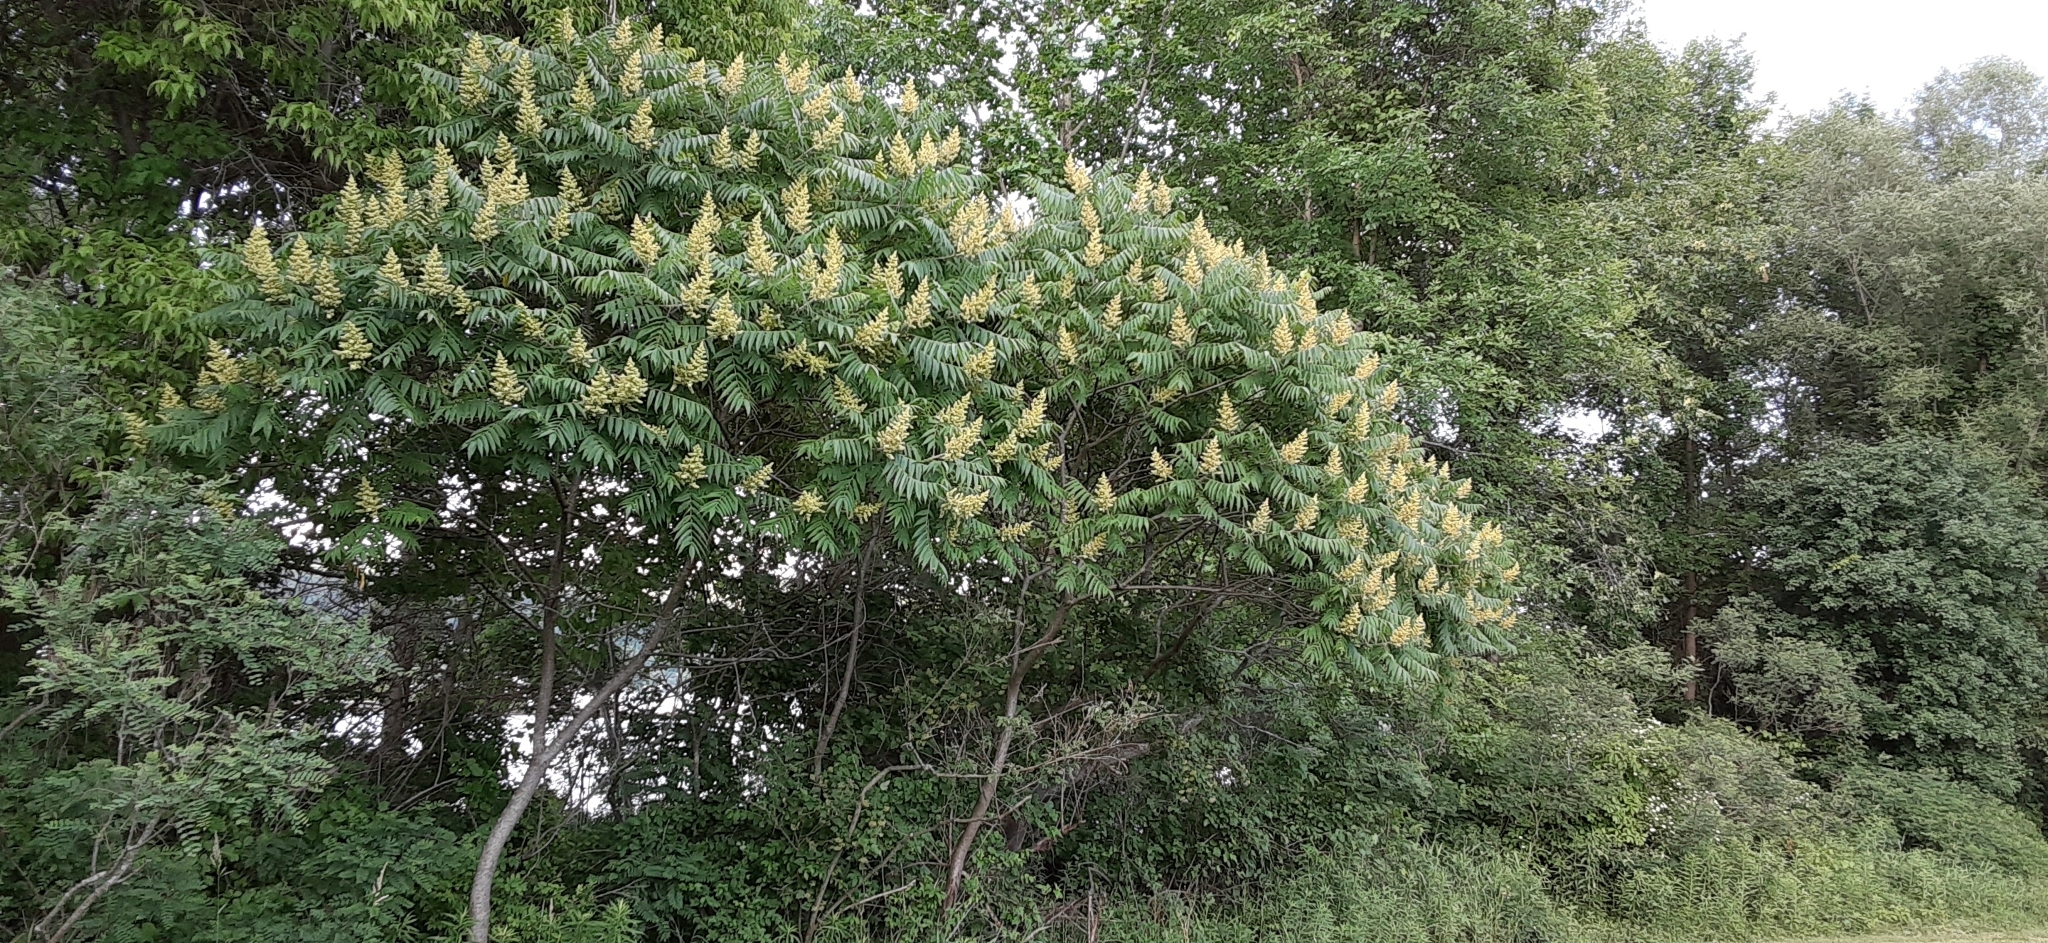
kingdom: Plantae
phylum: Tracheophyta
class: Magnoliopsida
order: Sapindales
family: Anacardiaceae
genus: Rhus
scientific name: Rhus typhina
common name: Staghorn sumac
